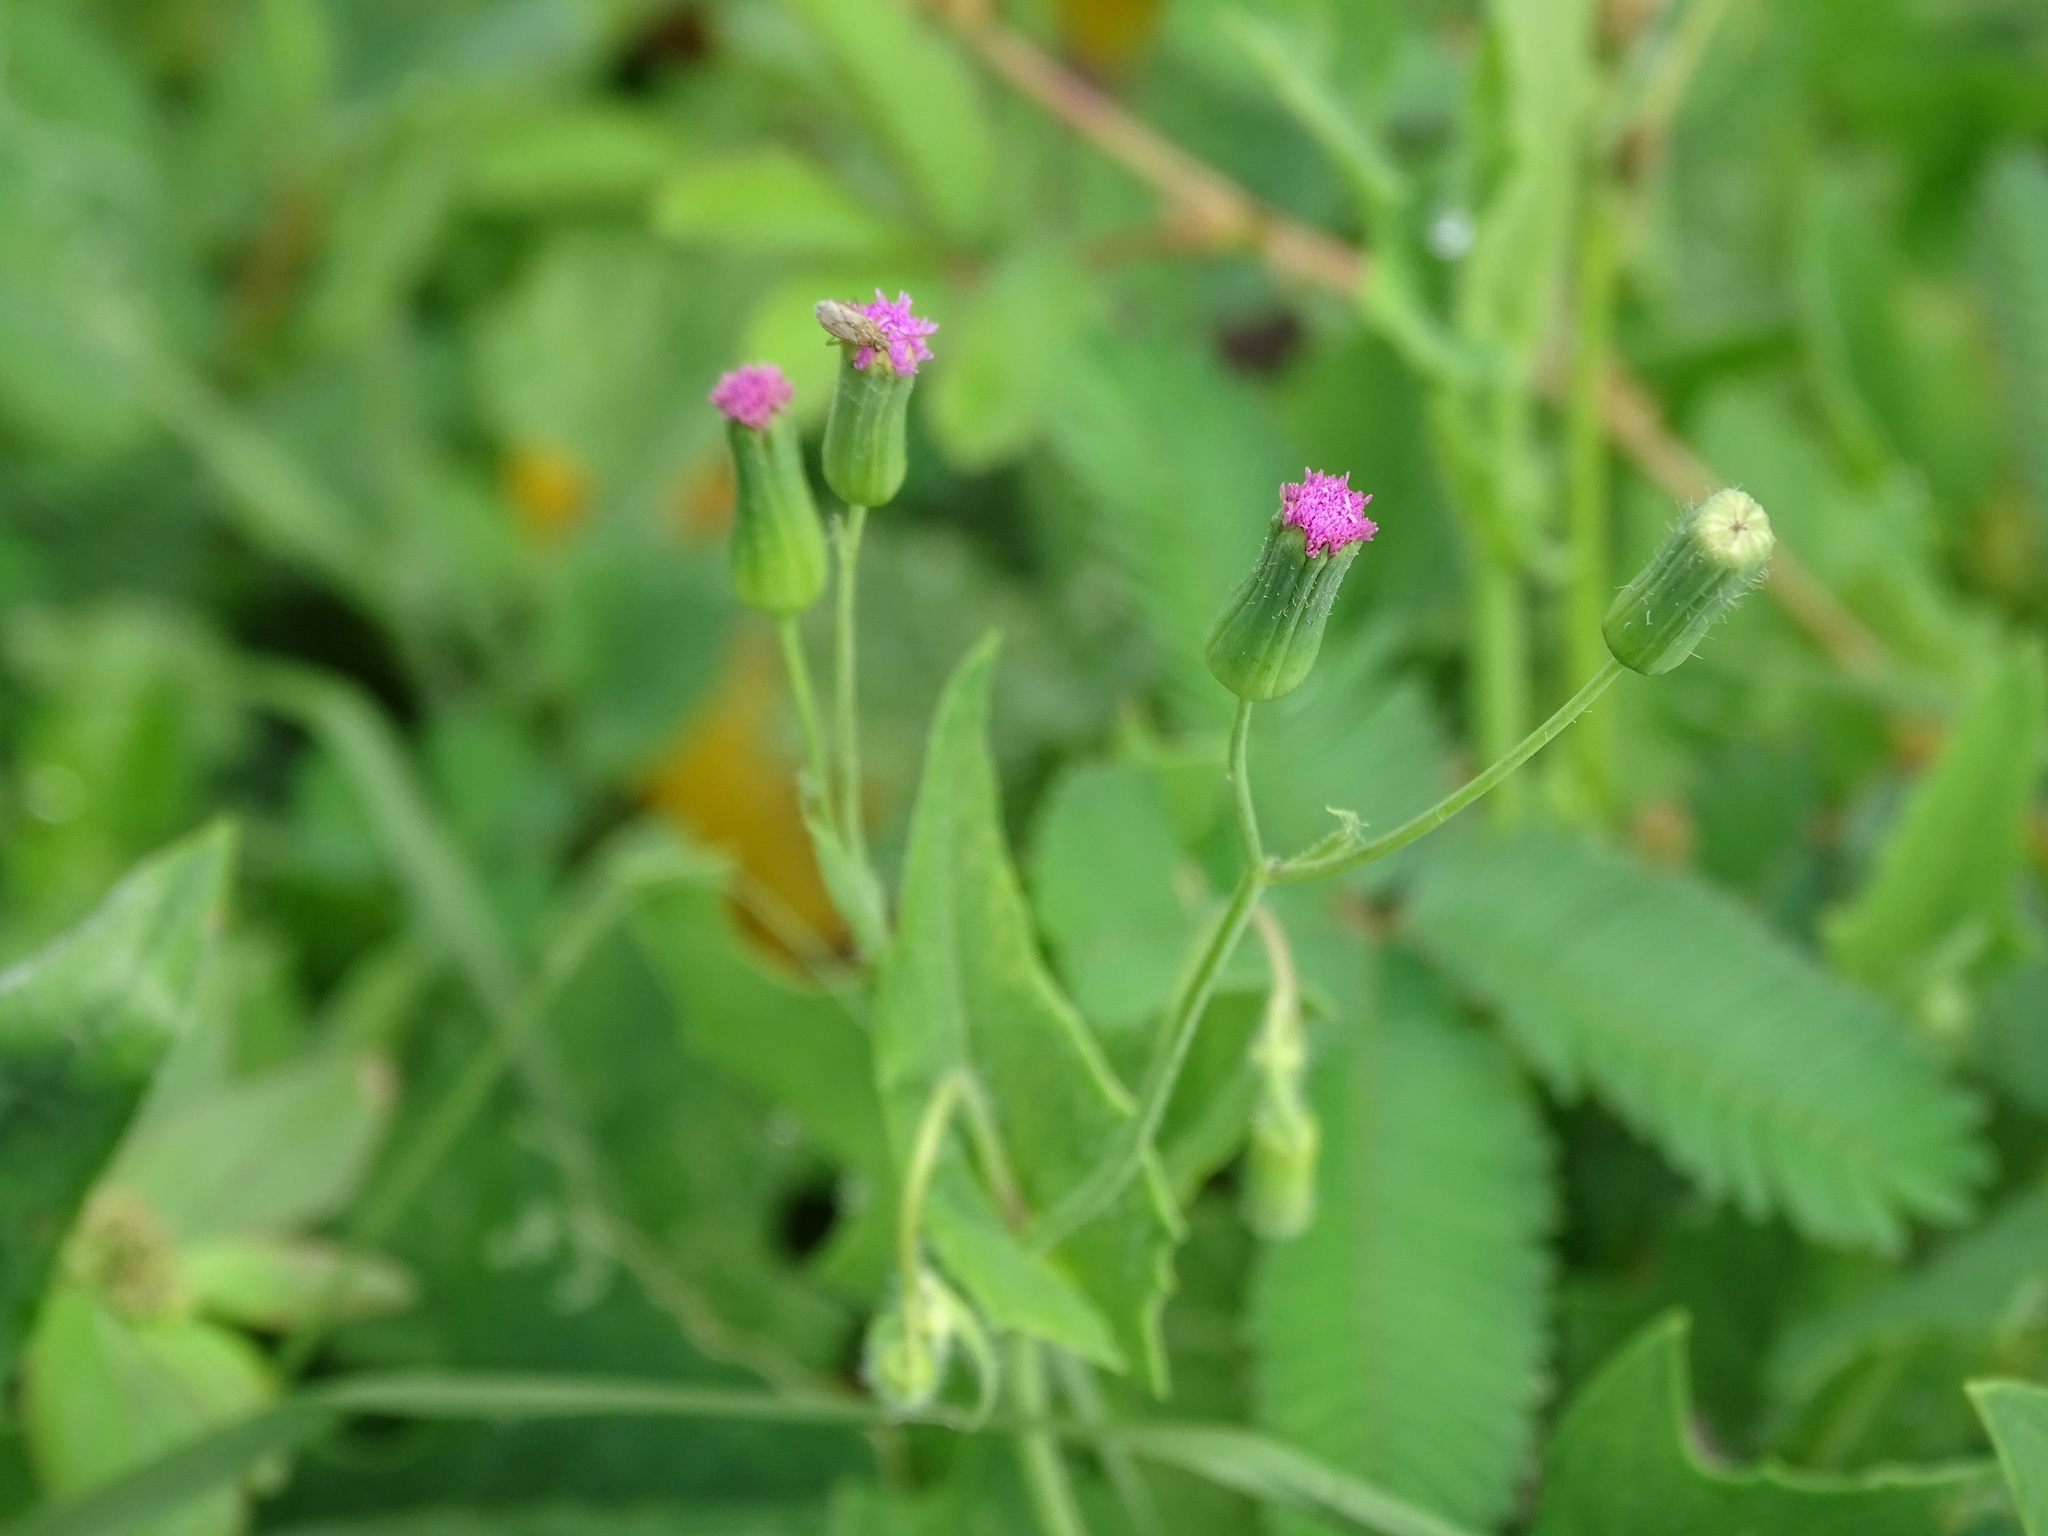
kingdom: Plantae
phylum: Tracheophyta
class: Magnoliopsida
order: Asterales
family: Asteraceae
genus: Emilia
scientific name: Emilia javanica
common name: Tassel-flower
